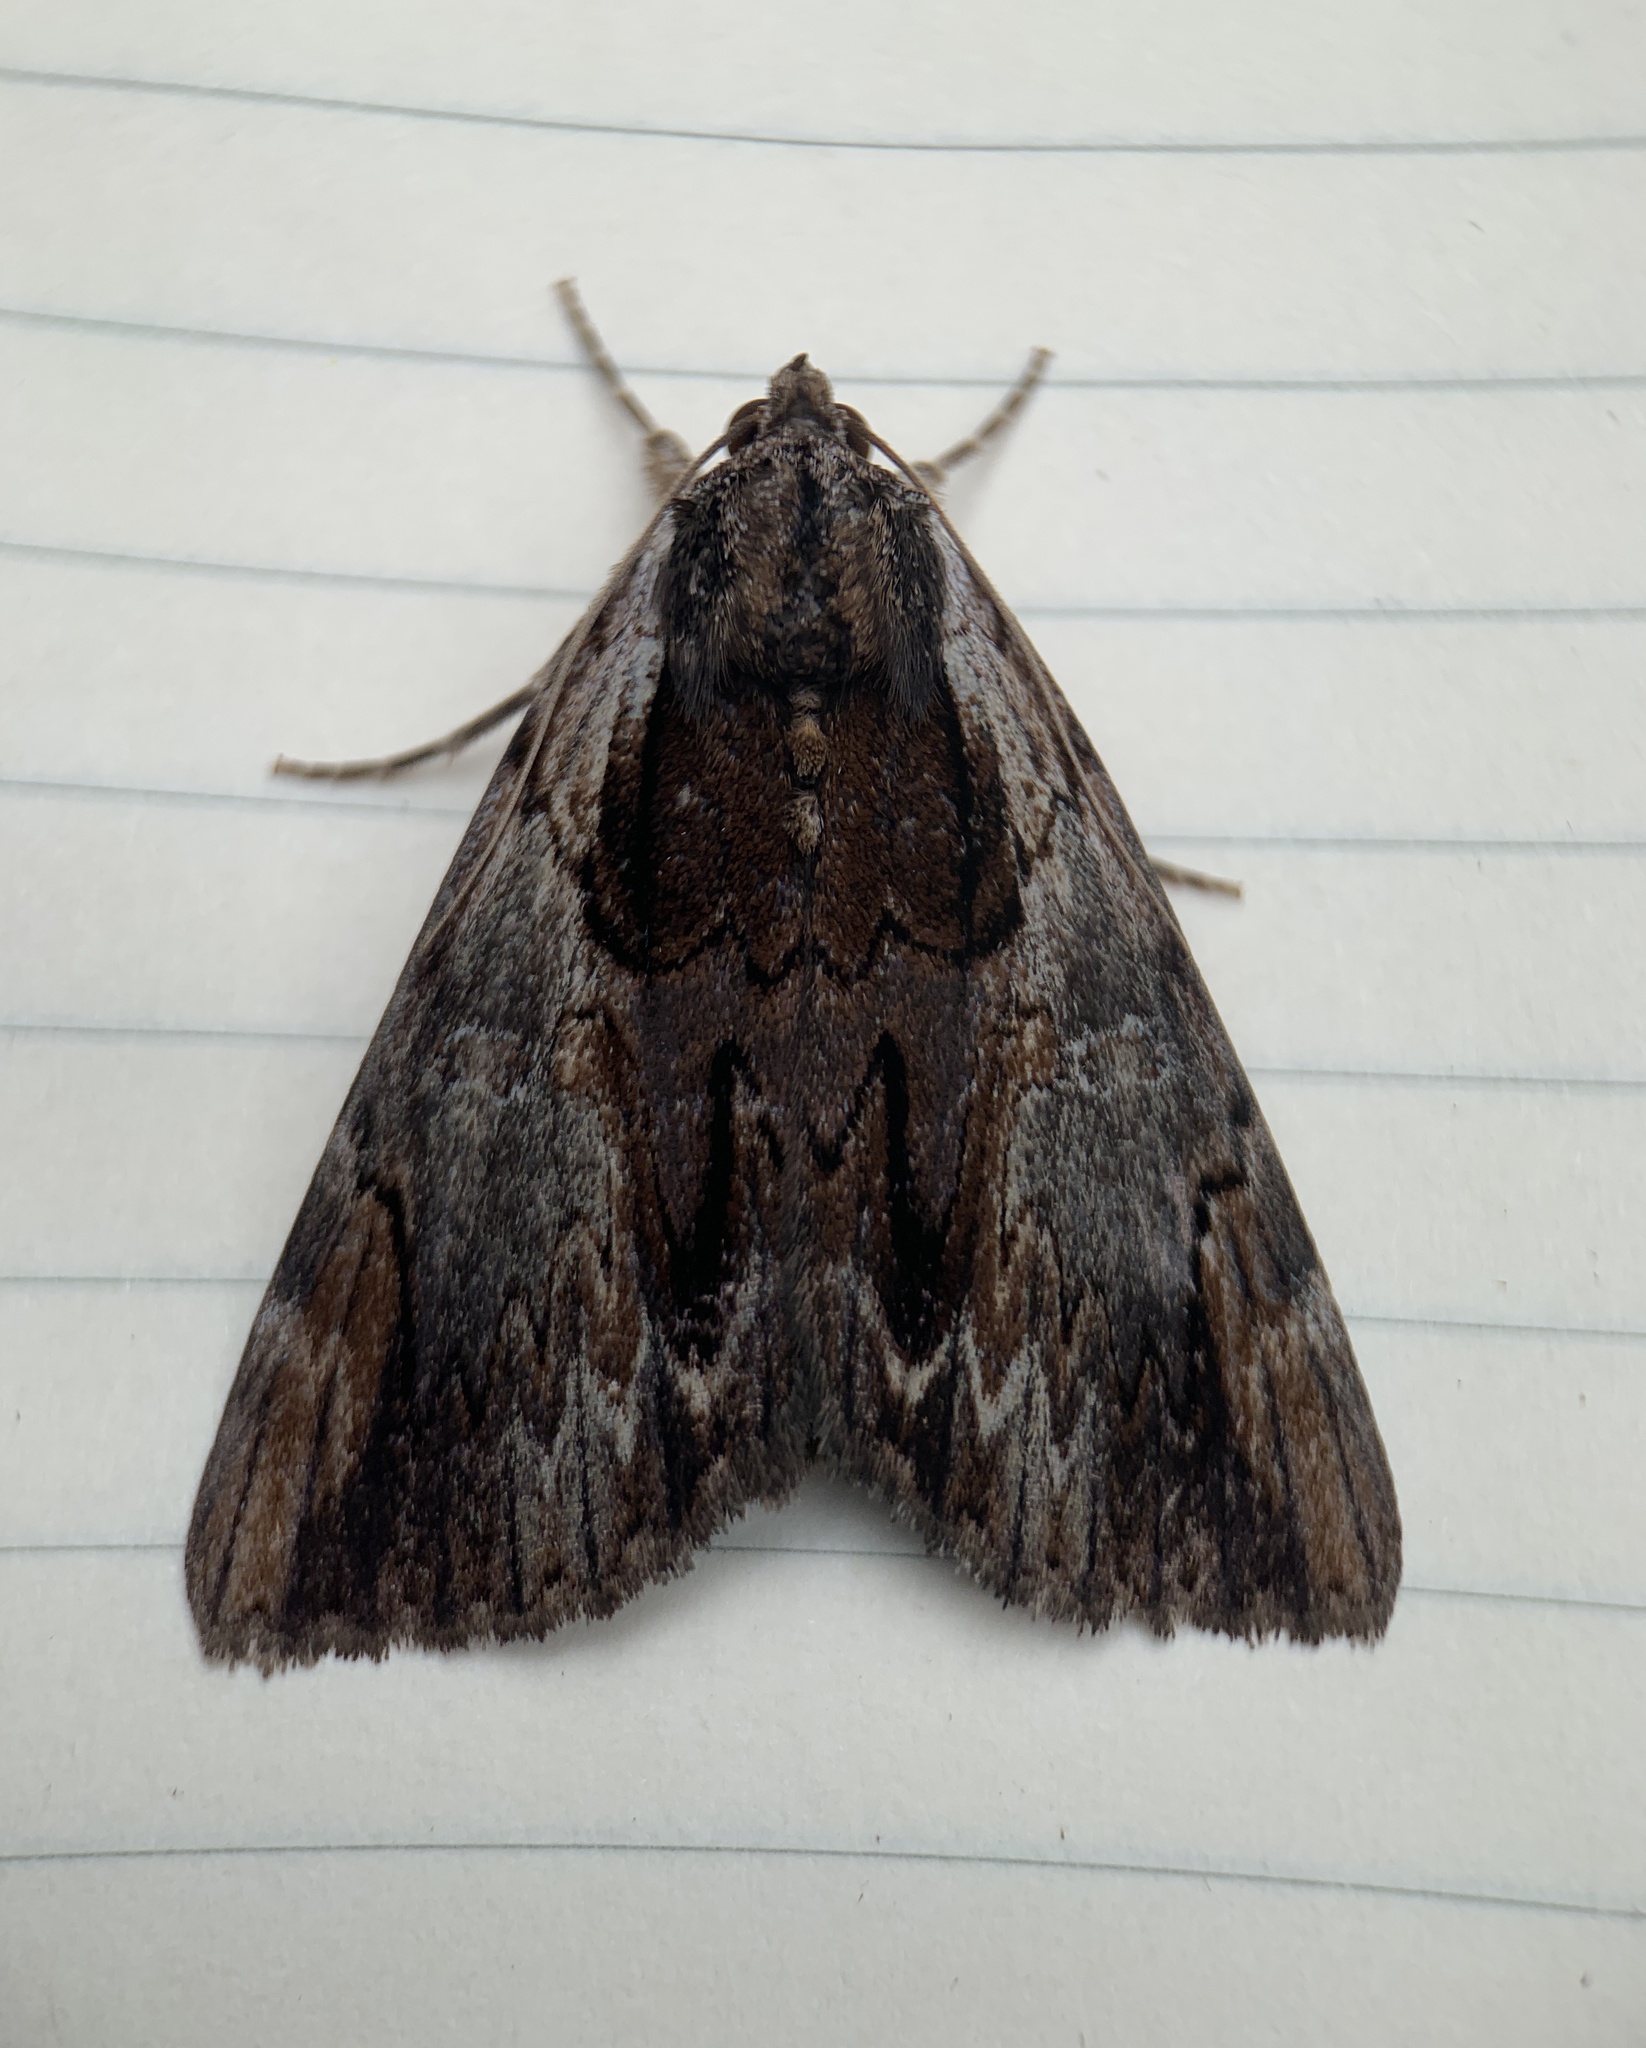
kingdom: Animalia
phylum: Arthropoda
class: Insecta
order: Lepidoptera
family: Erebidae
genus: Catocala
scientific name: Catocala ultronia
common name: Ultronia underwing
